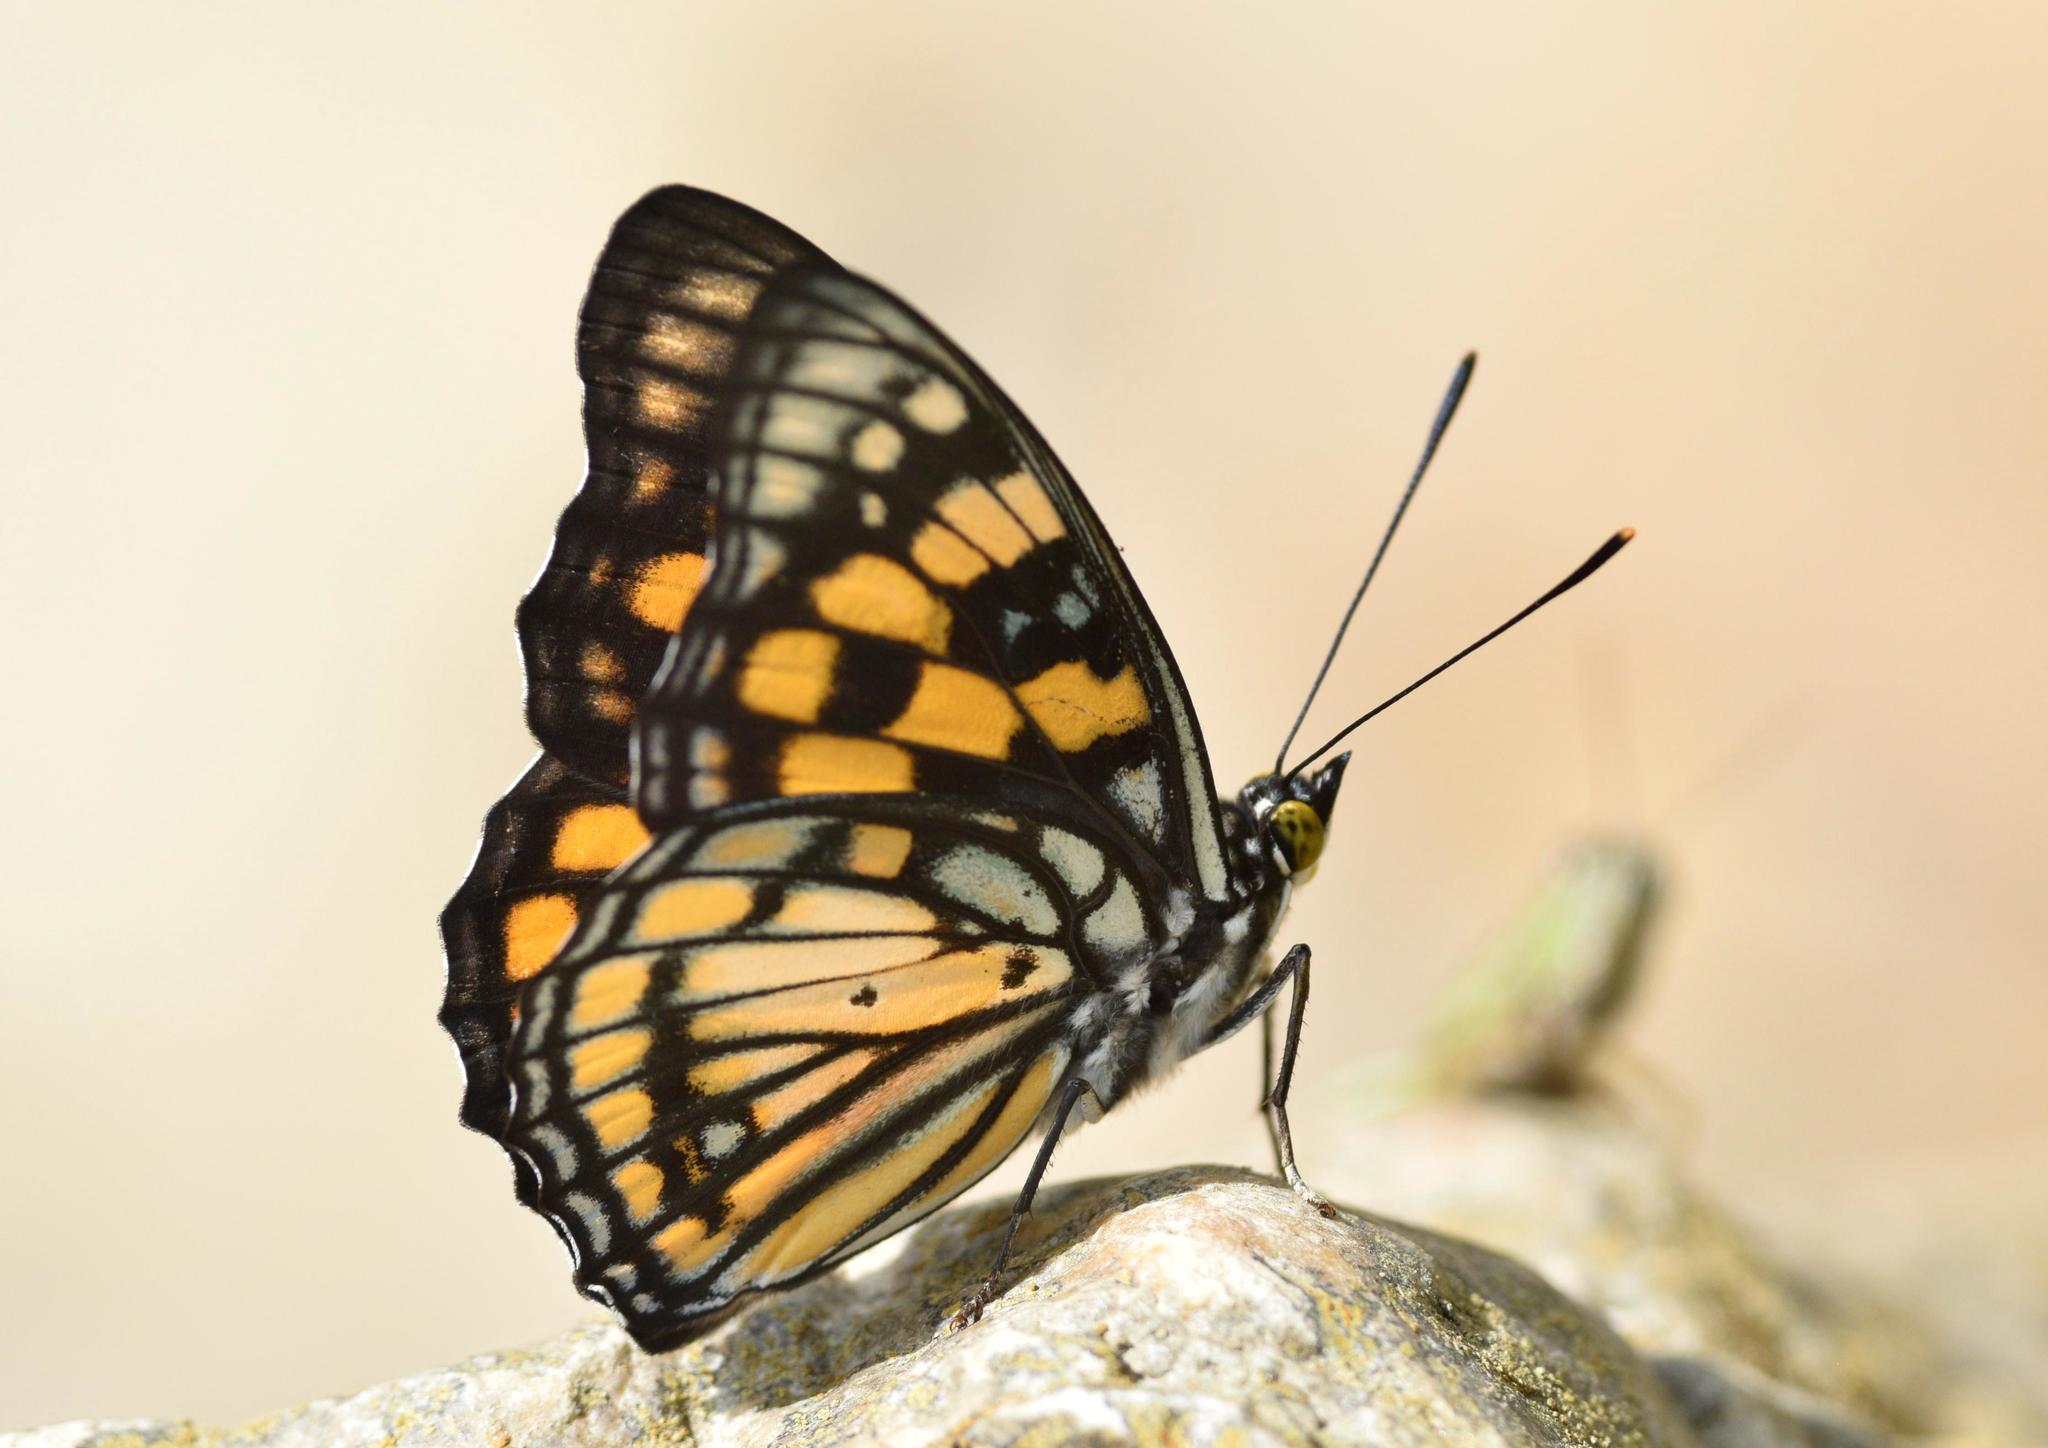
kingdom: Animalia
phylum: Arthropoda
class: Insecta
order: Lepidoptera
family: Nymphalidae
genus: Sephisa
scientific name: Sephisa dichroa
